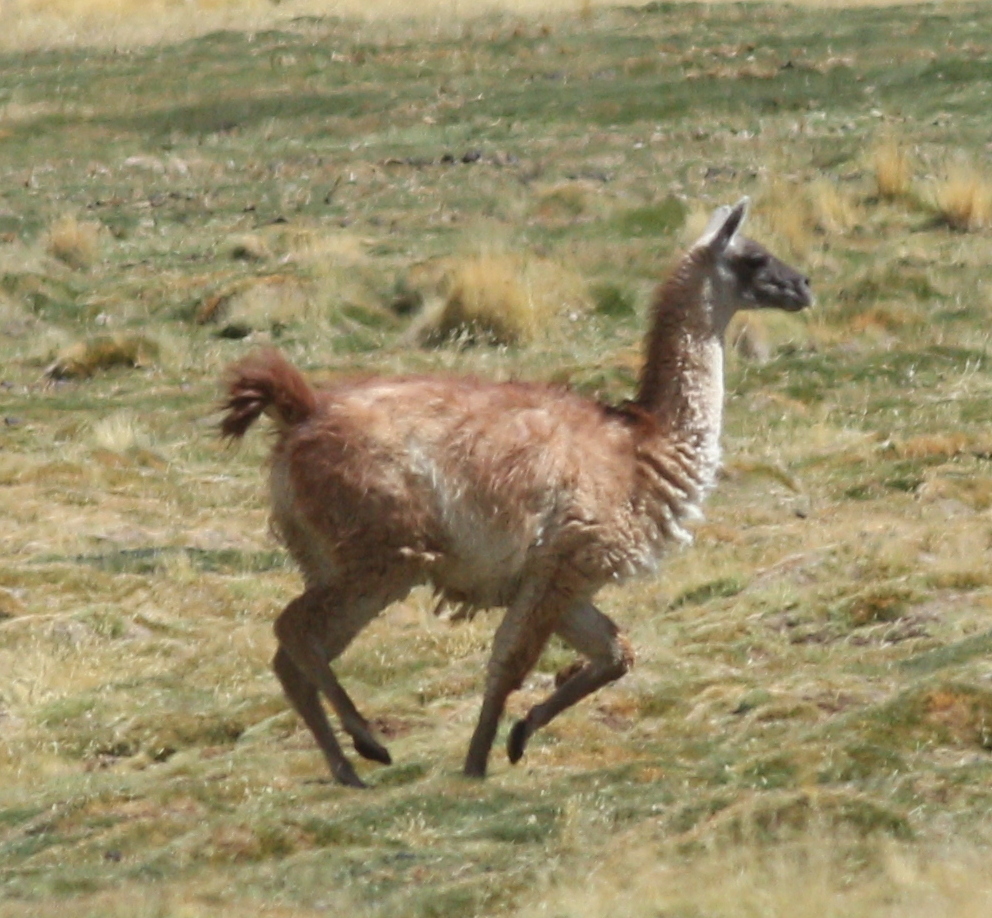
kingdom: Animalia
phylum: Chordata
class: Mammalia
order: Artiodactyla
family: Camelidae
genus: Lama
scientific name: Lama glama
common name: Llama
